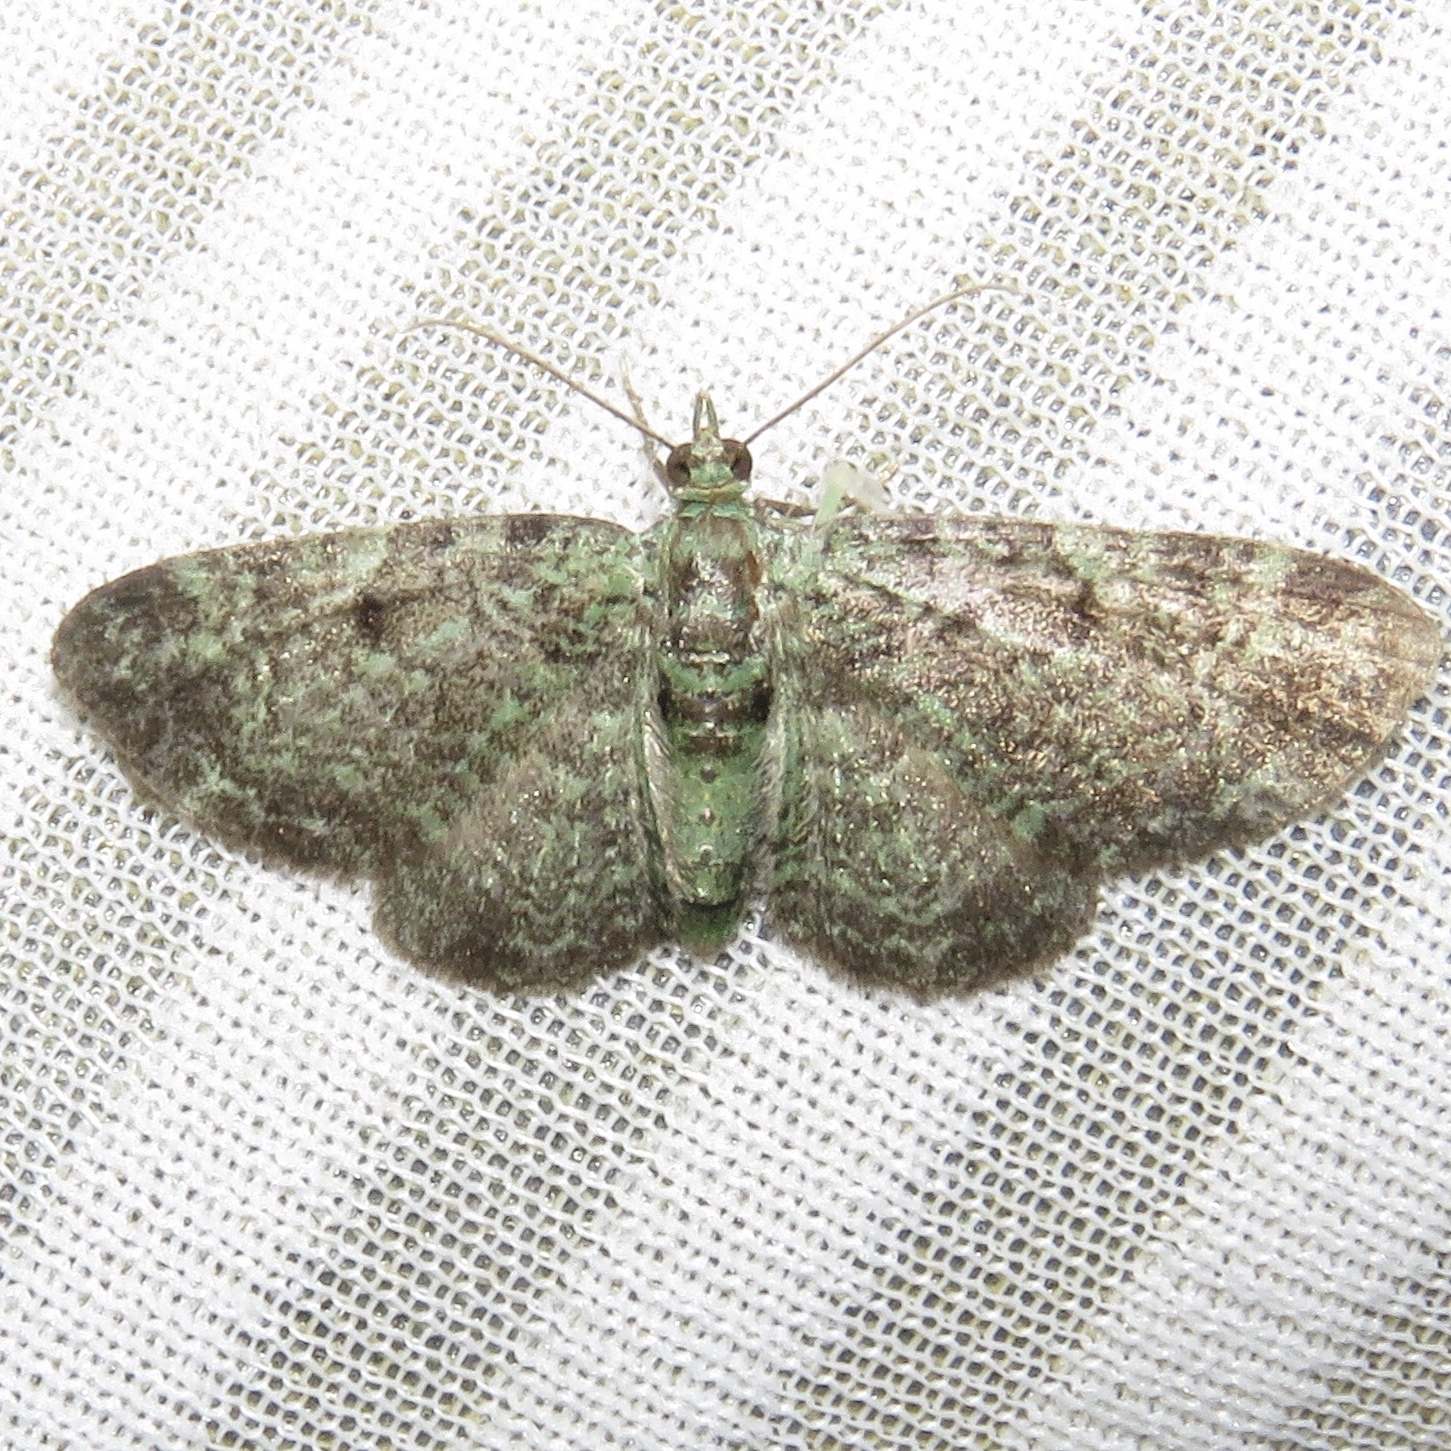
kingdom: Animalia
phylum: Arthropoda
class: Insecta
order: Lepidoptera
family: Geometridae
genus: Pasiphila
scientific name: Pasiphila rectangulata
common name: Green pug
